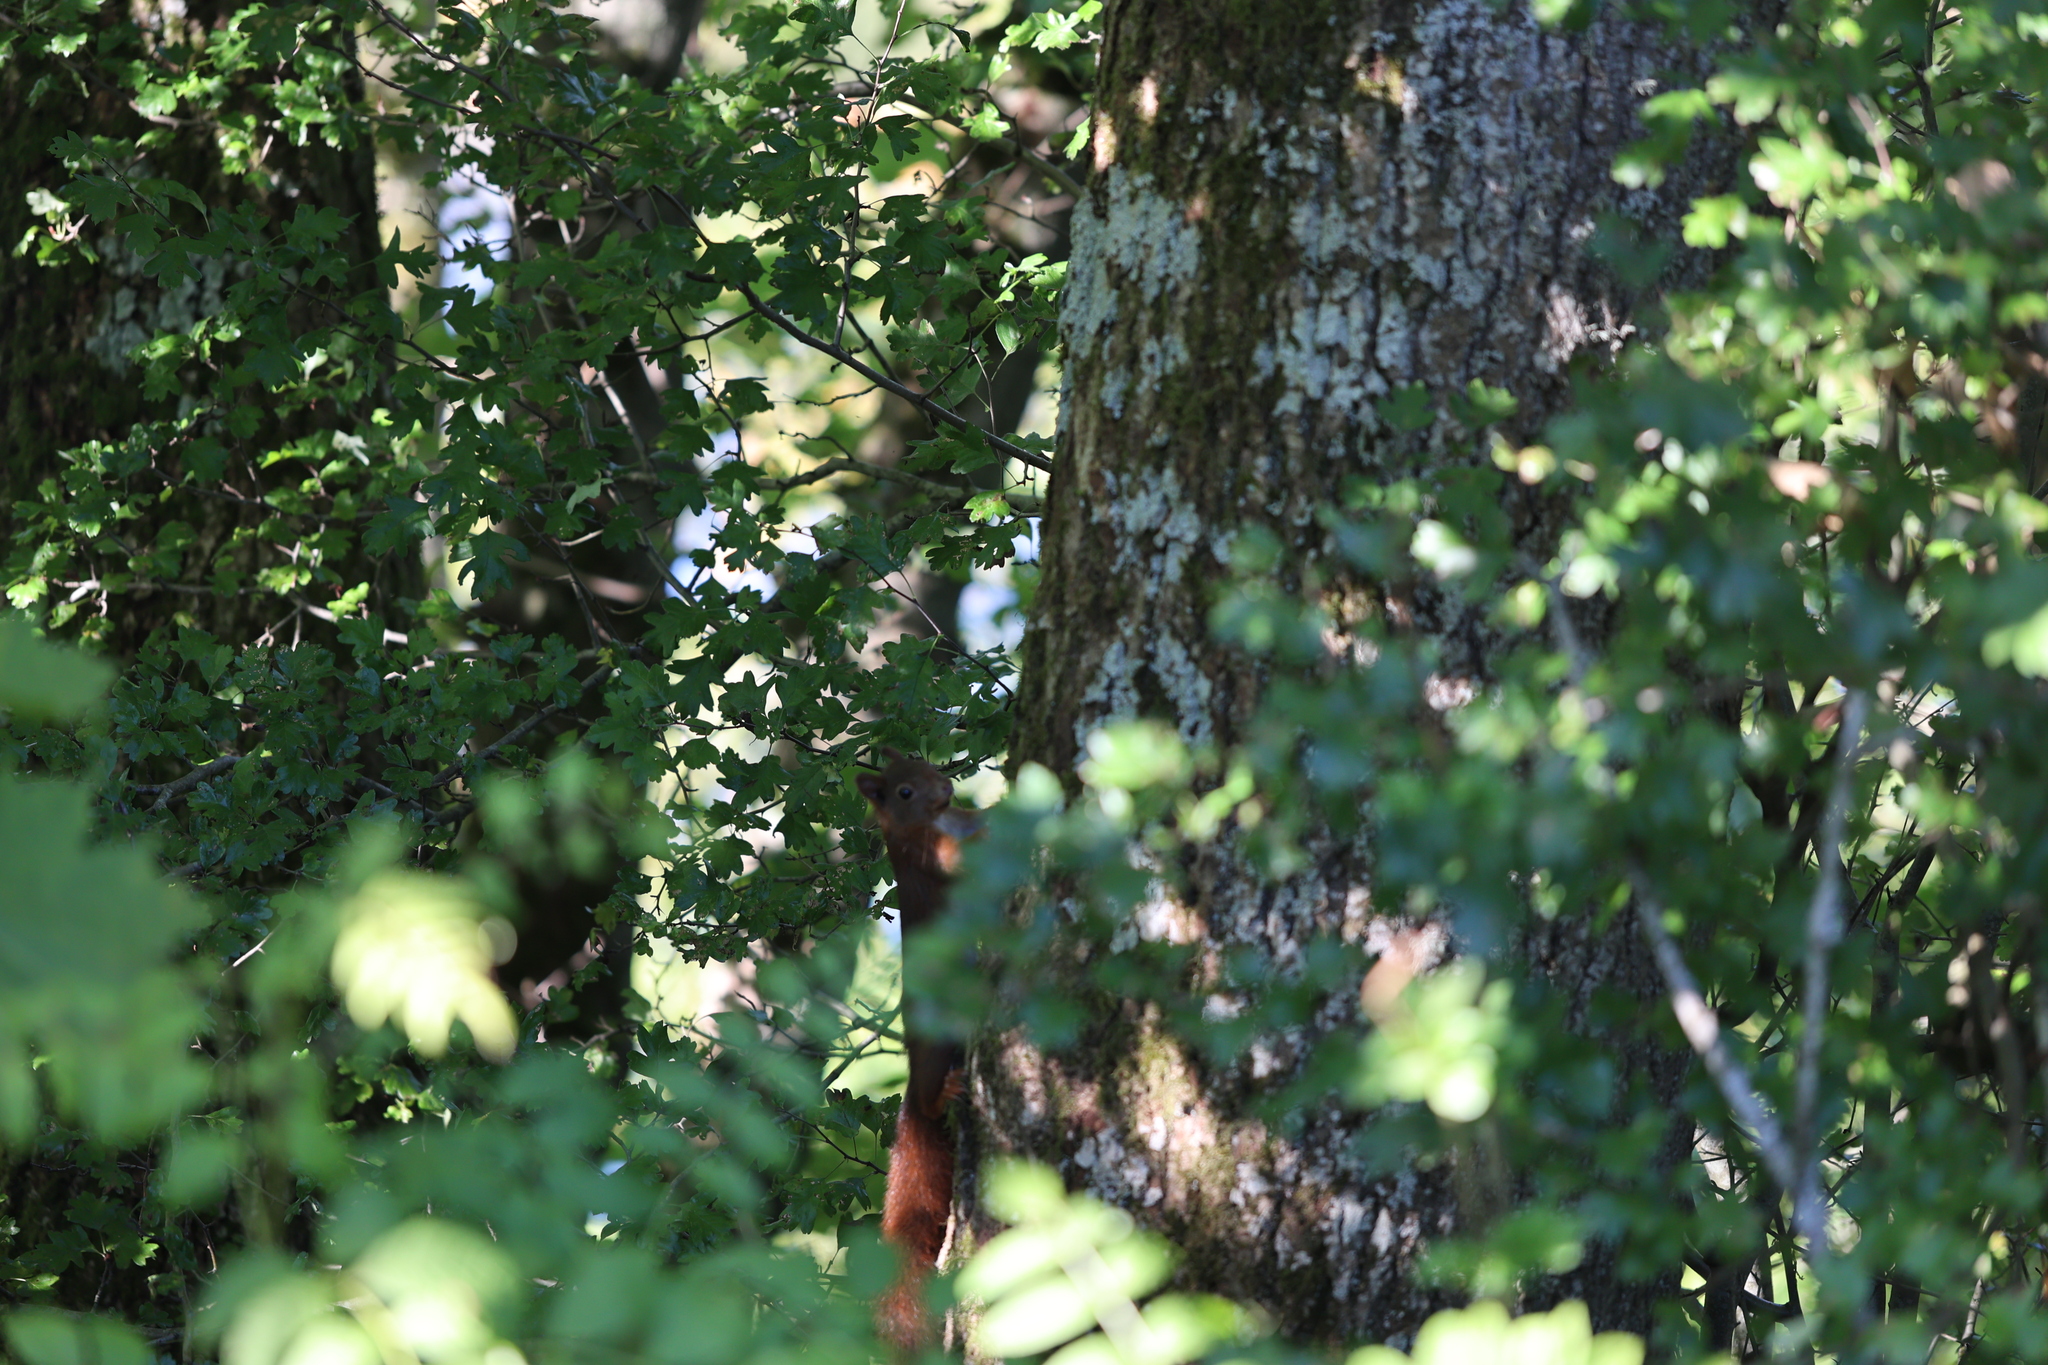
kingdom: Animalia
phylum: Chordata
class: Mammalia
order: Rodentia
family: Sciuridae
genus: Sciurus
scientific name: Sciurus vulgaris
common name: Eurasian red squirrel
